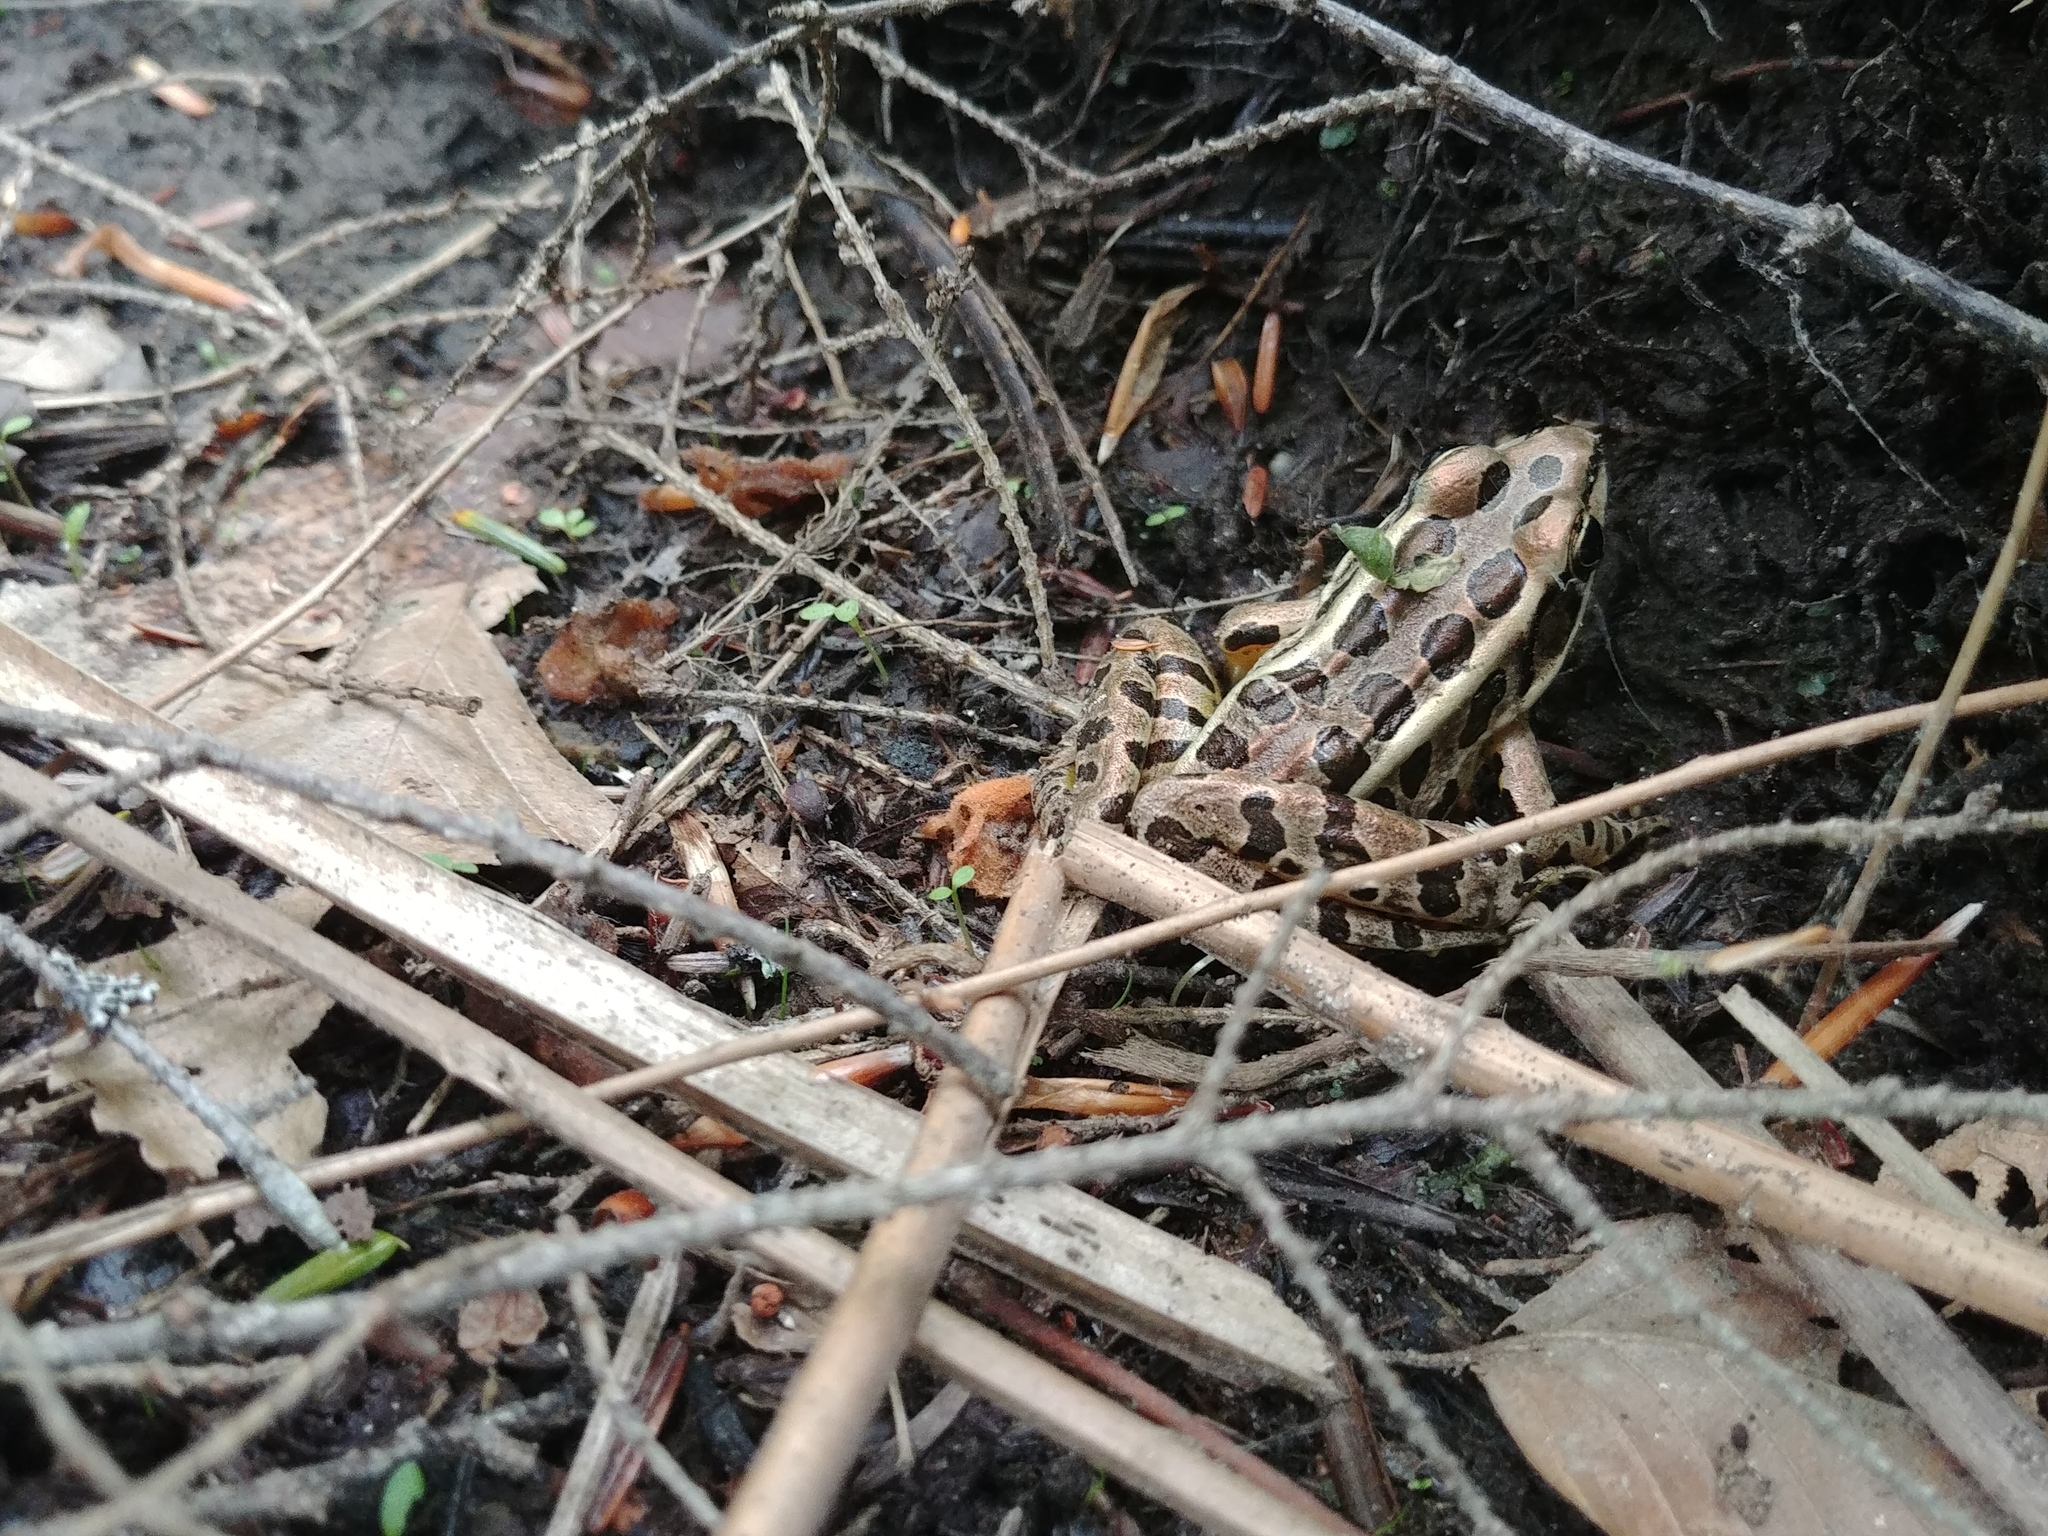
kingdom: Animalia
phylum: Chordata
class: Amphibia
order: Anura
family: Ranidae
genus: Lithobates
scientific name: Lithobates palustris
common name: Pickerel frog
